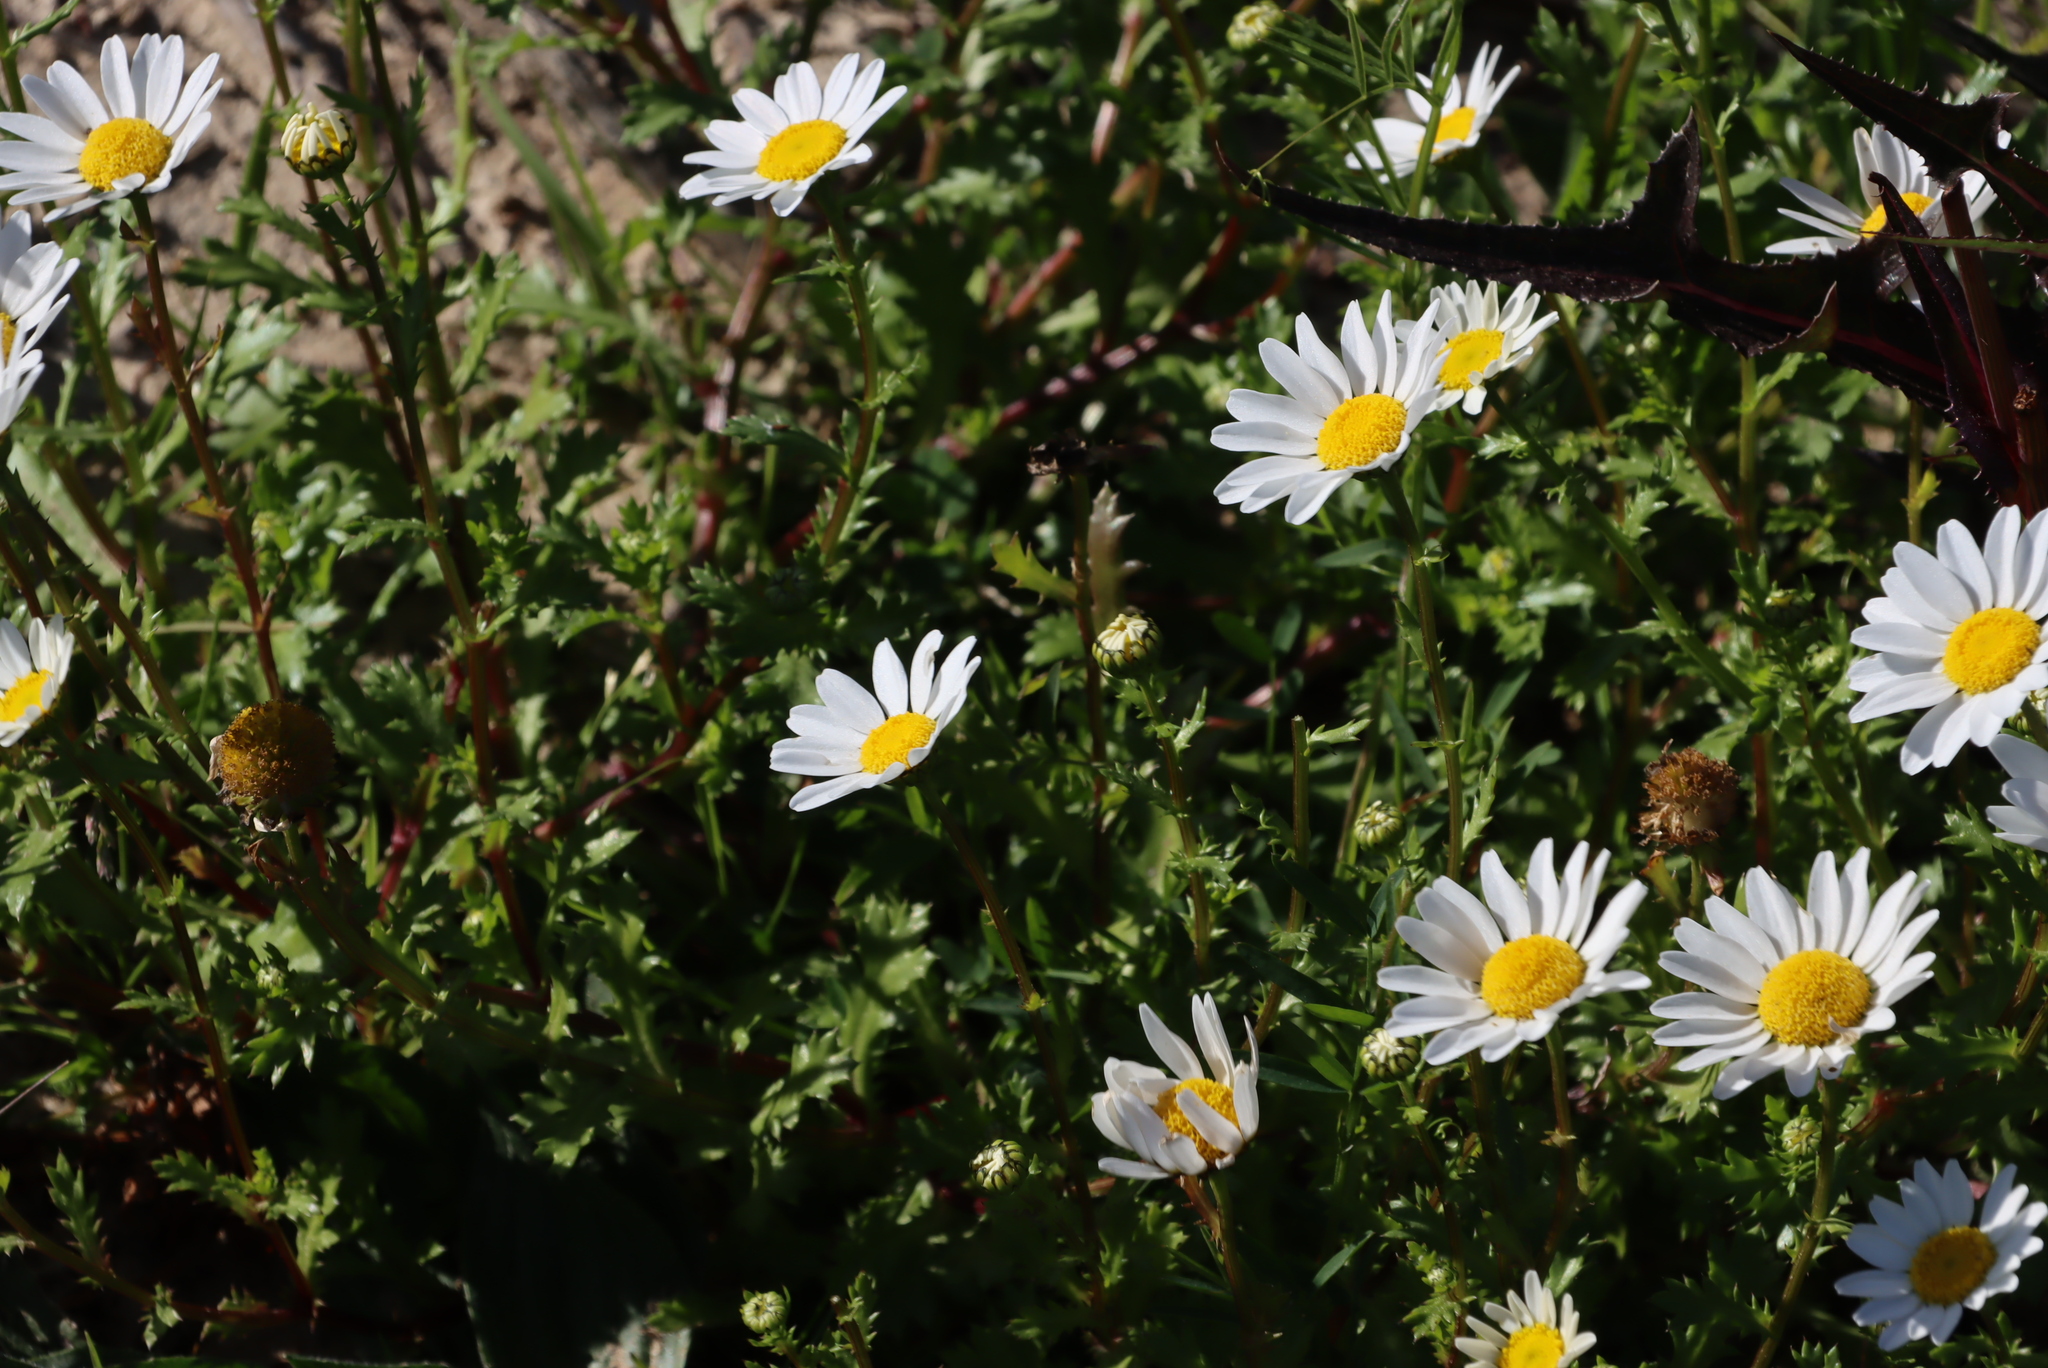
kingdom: Plantae
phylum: Tracheophyta
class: Magnoliopsida
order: Asterales
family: Asteraceae
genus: Tanacetum
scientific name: Tanacetum parthenium
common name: Feverfew
